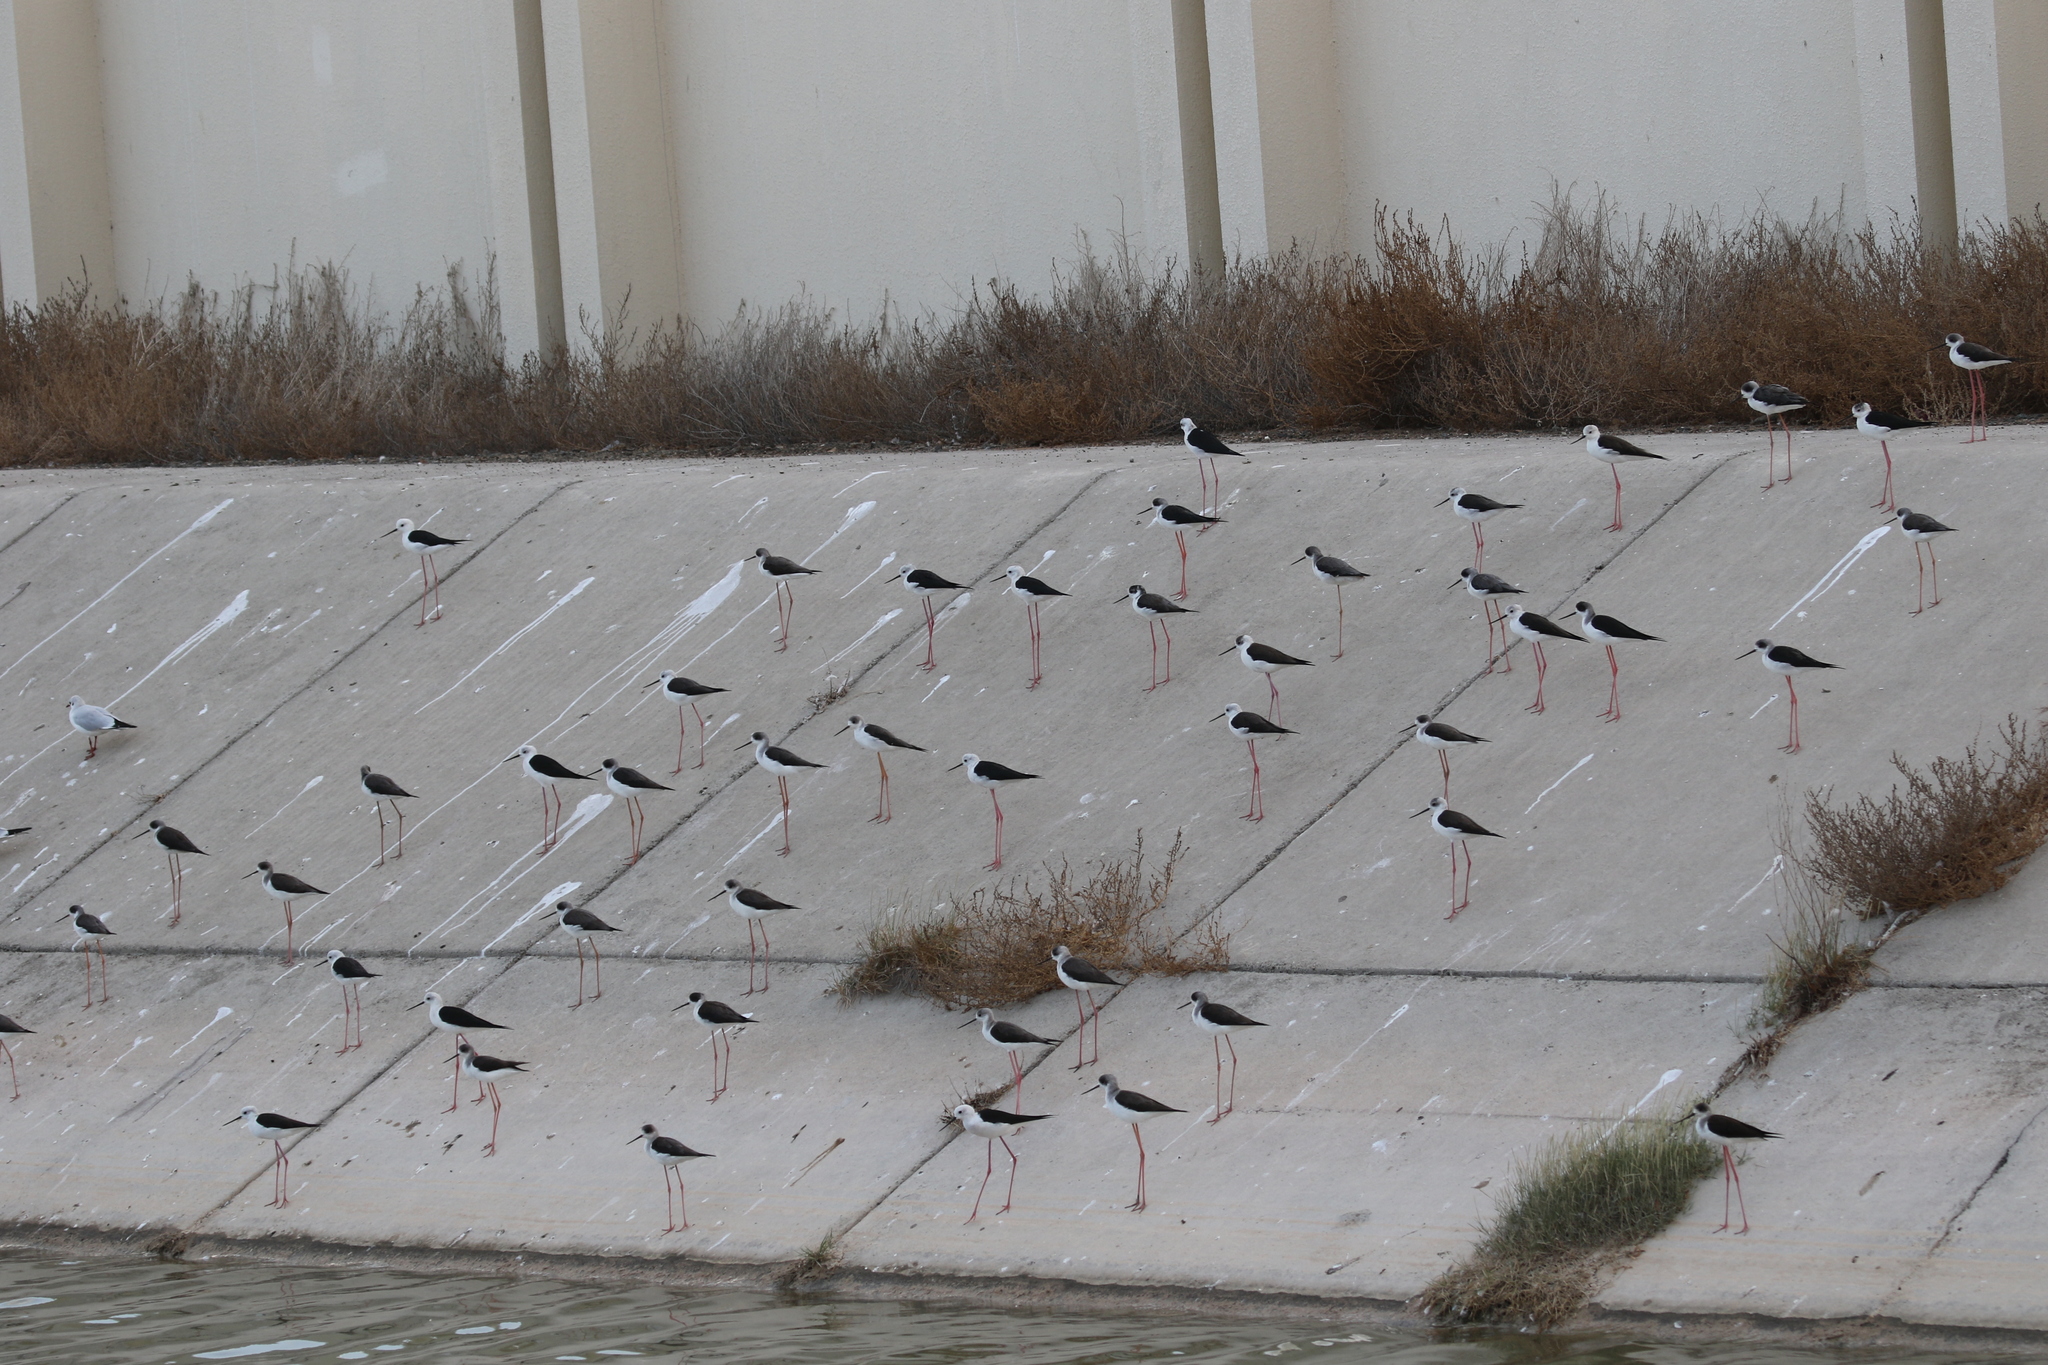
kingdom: Animalia
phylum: Chordata
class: Aves
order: Charadriiformes
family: Recurvirostridae
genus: Himantopus
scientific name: Himantopus himantopus
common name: Black-winged stilt
